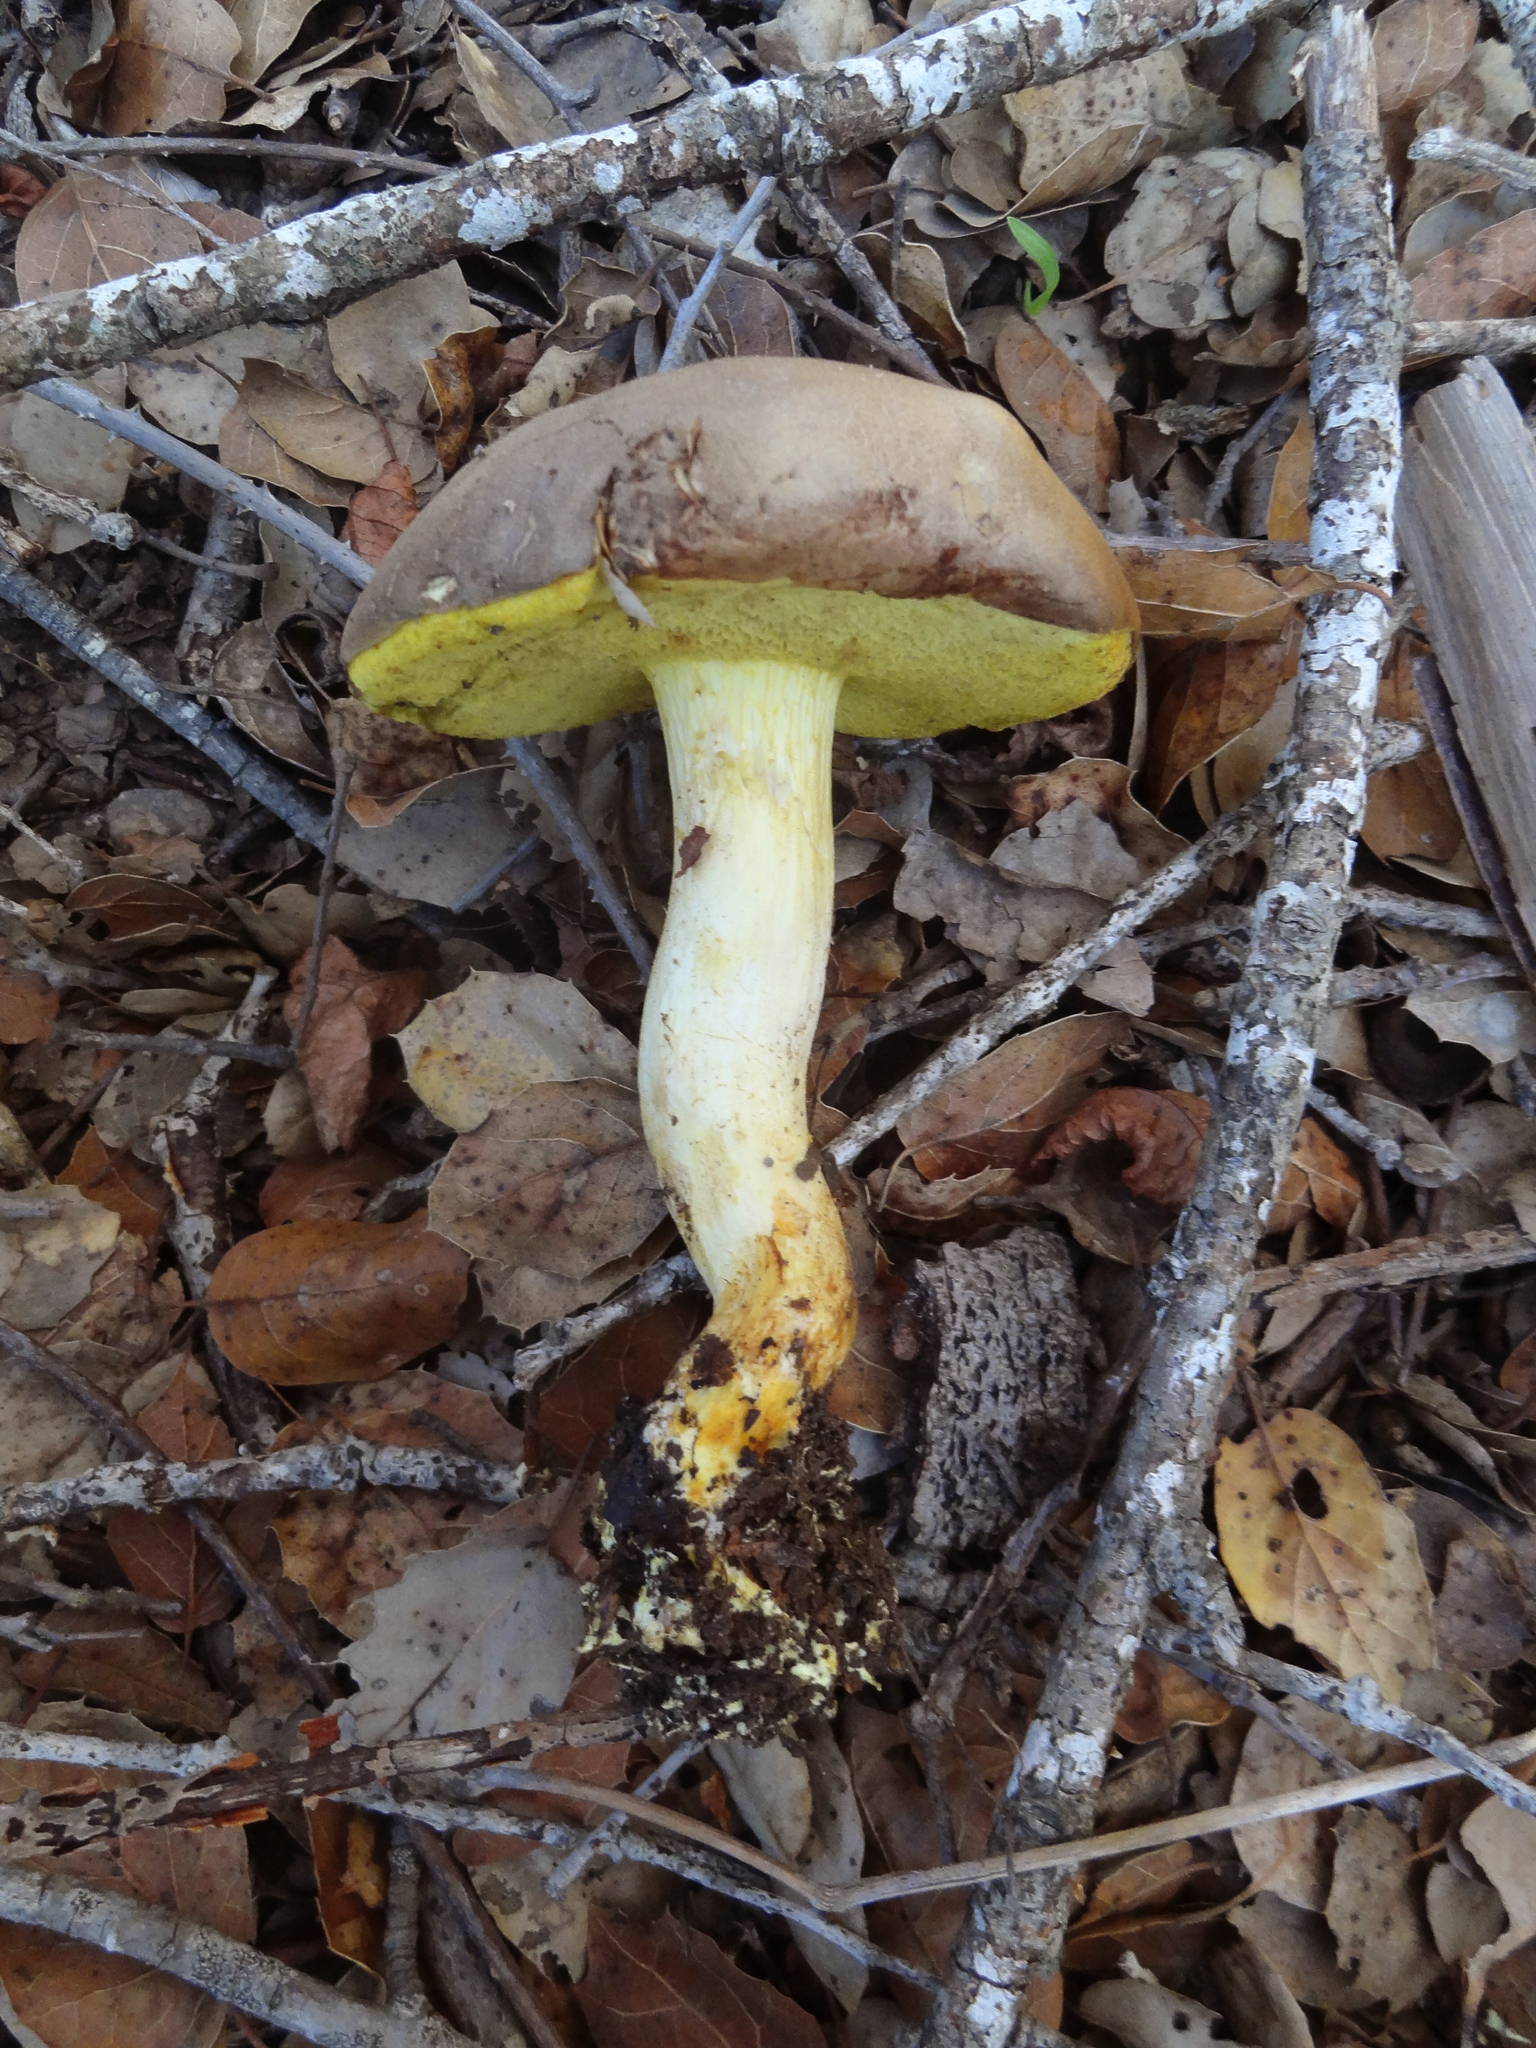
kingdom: Fungi
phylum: Basidiomycota
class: Agaricomycetes
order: Boletales
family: Boletaceae
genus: Xerocomus
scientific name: Xerocomus subtomentosus
